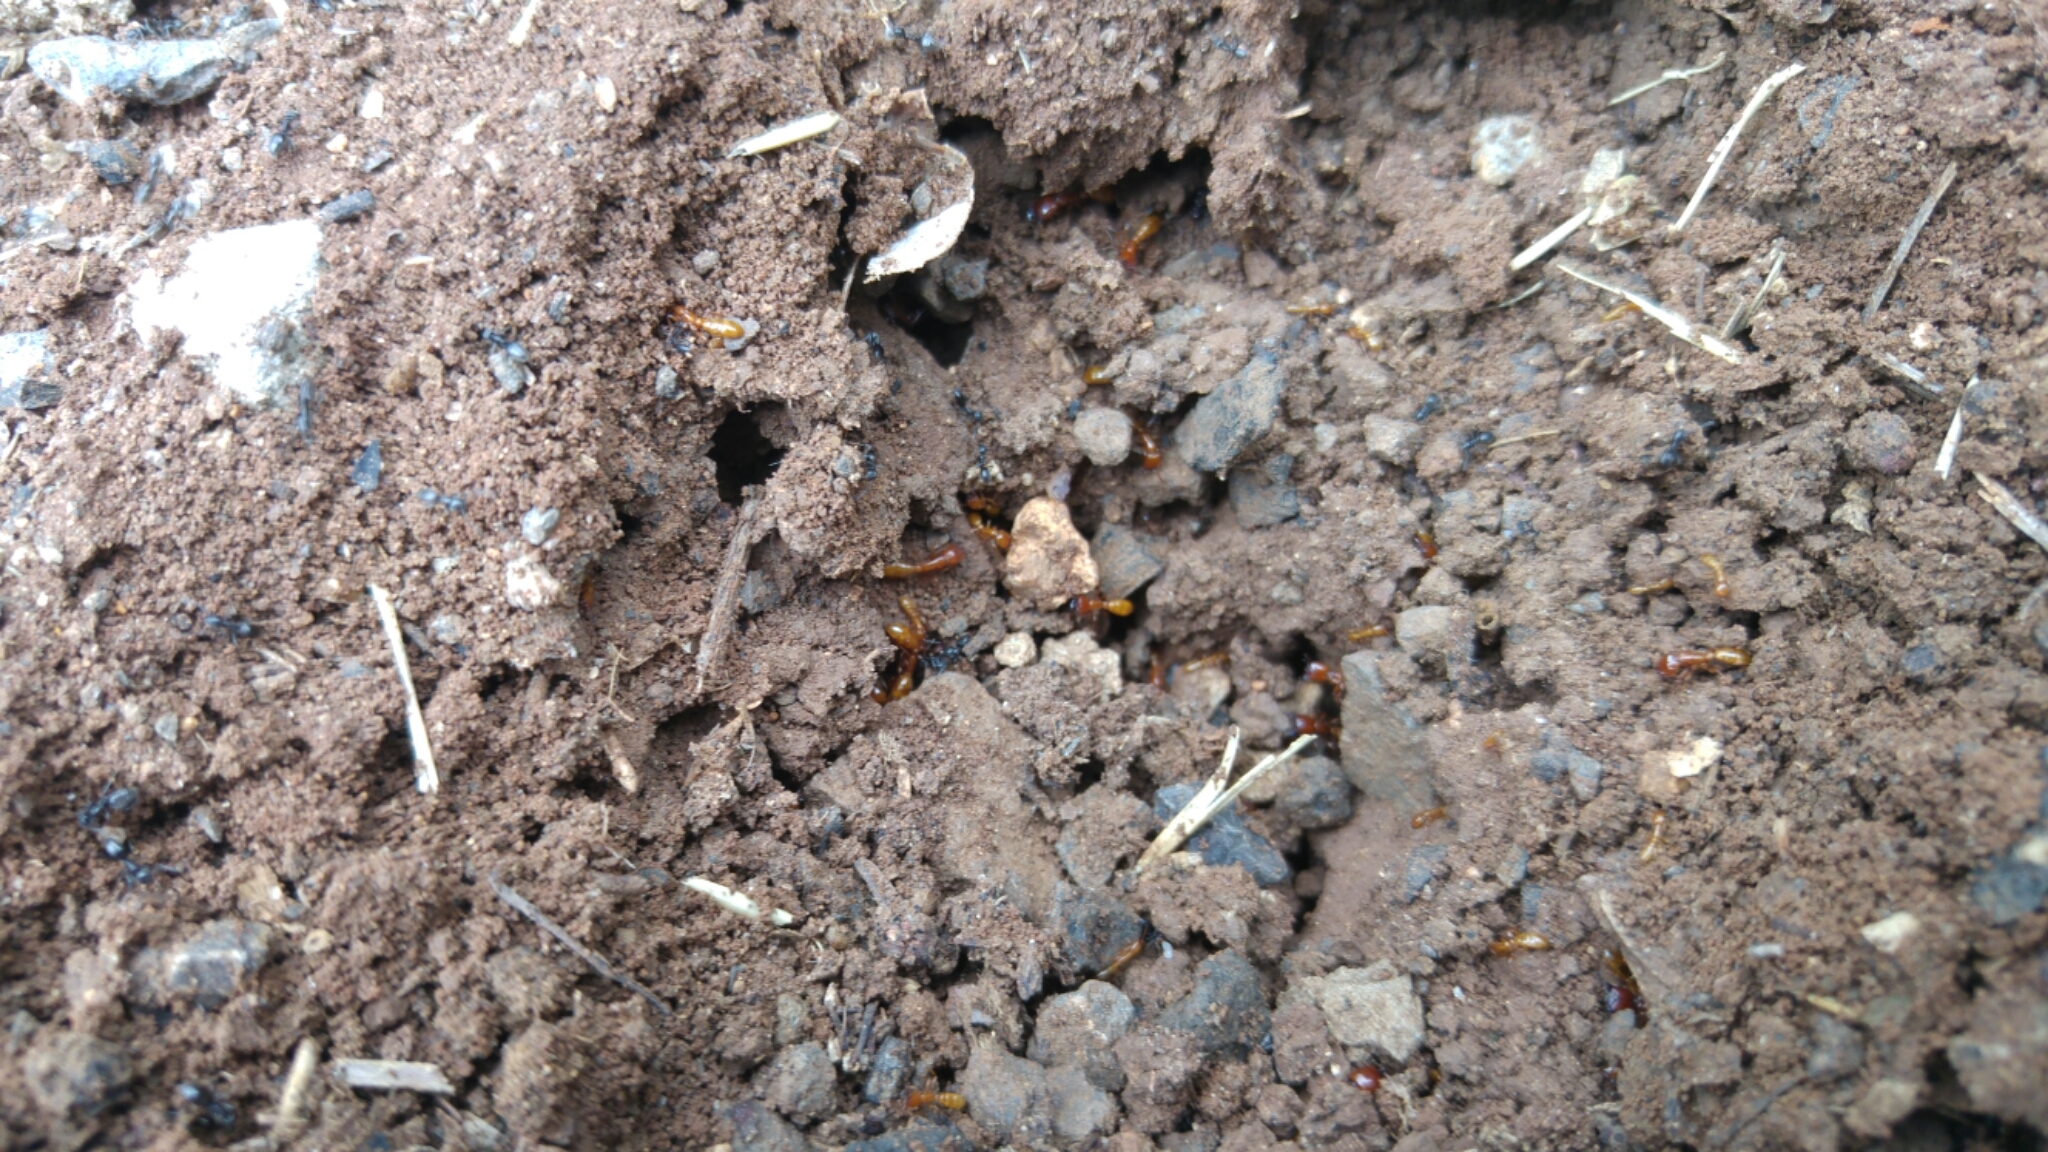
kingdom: Animalia
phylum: Arthropoda
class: Insecta
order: Hymenoptera
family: Formicidae
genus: Dorylus
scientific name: Dorylus fulvus
